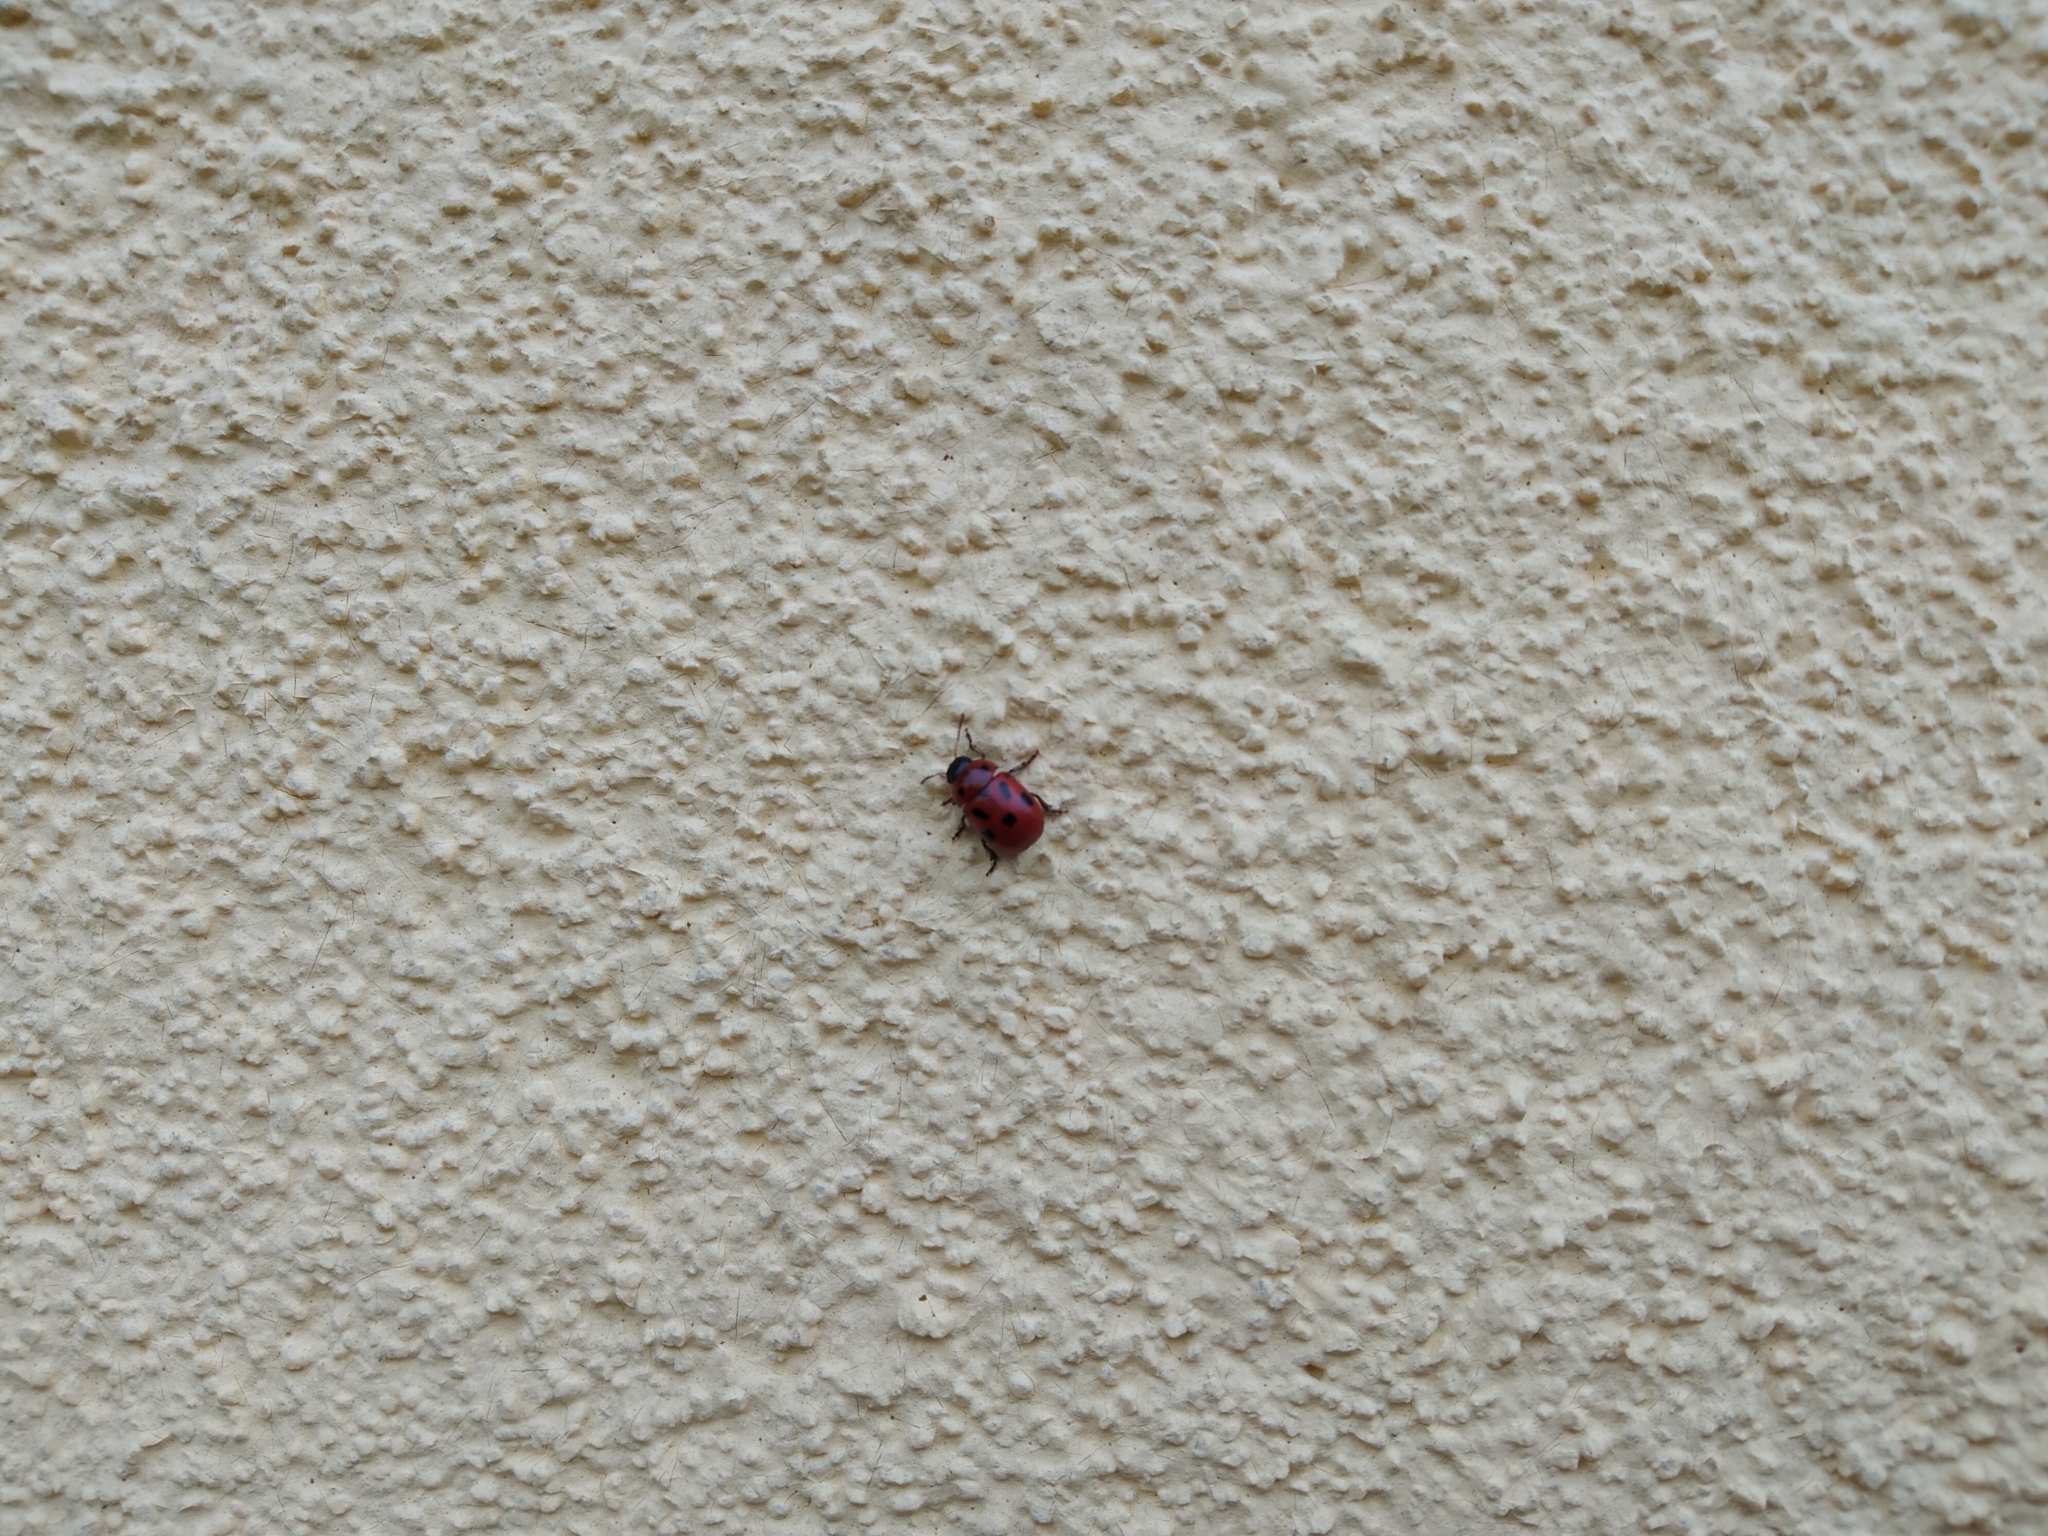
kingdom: Animalia
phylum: Arthropoda
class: Insecta
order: Coleoptera
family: Chrysomelidae
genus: Gonioctena
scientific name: Gonioctena fornicata
